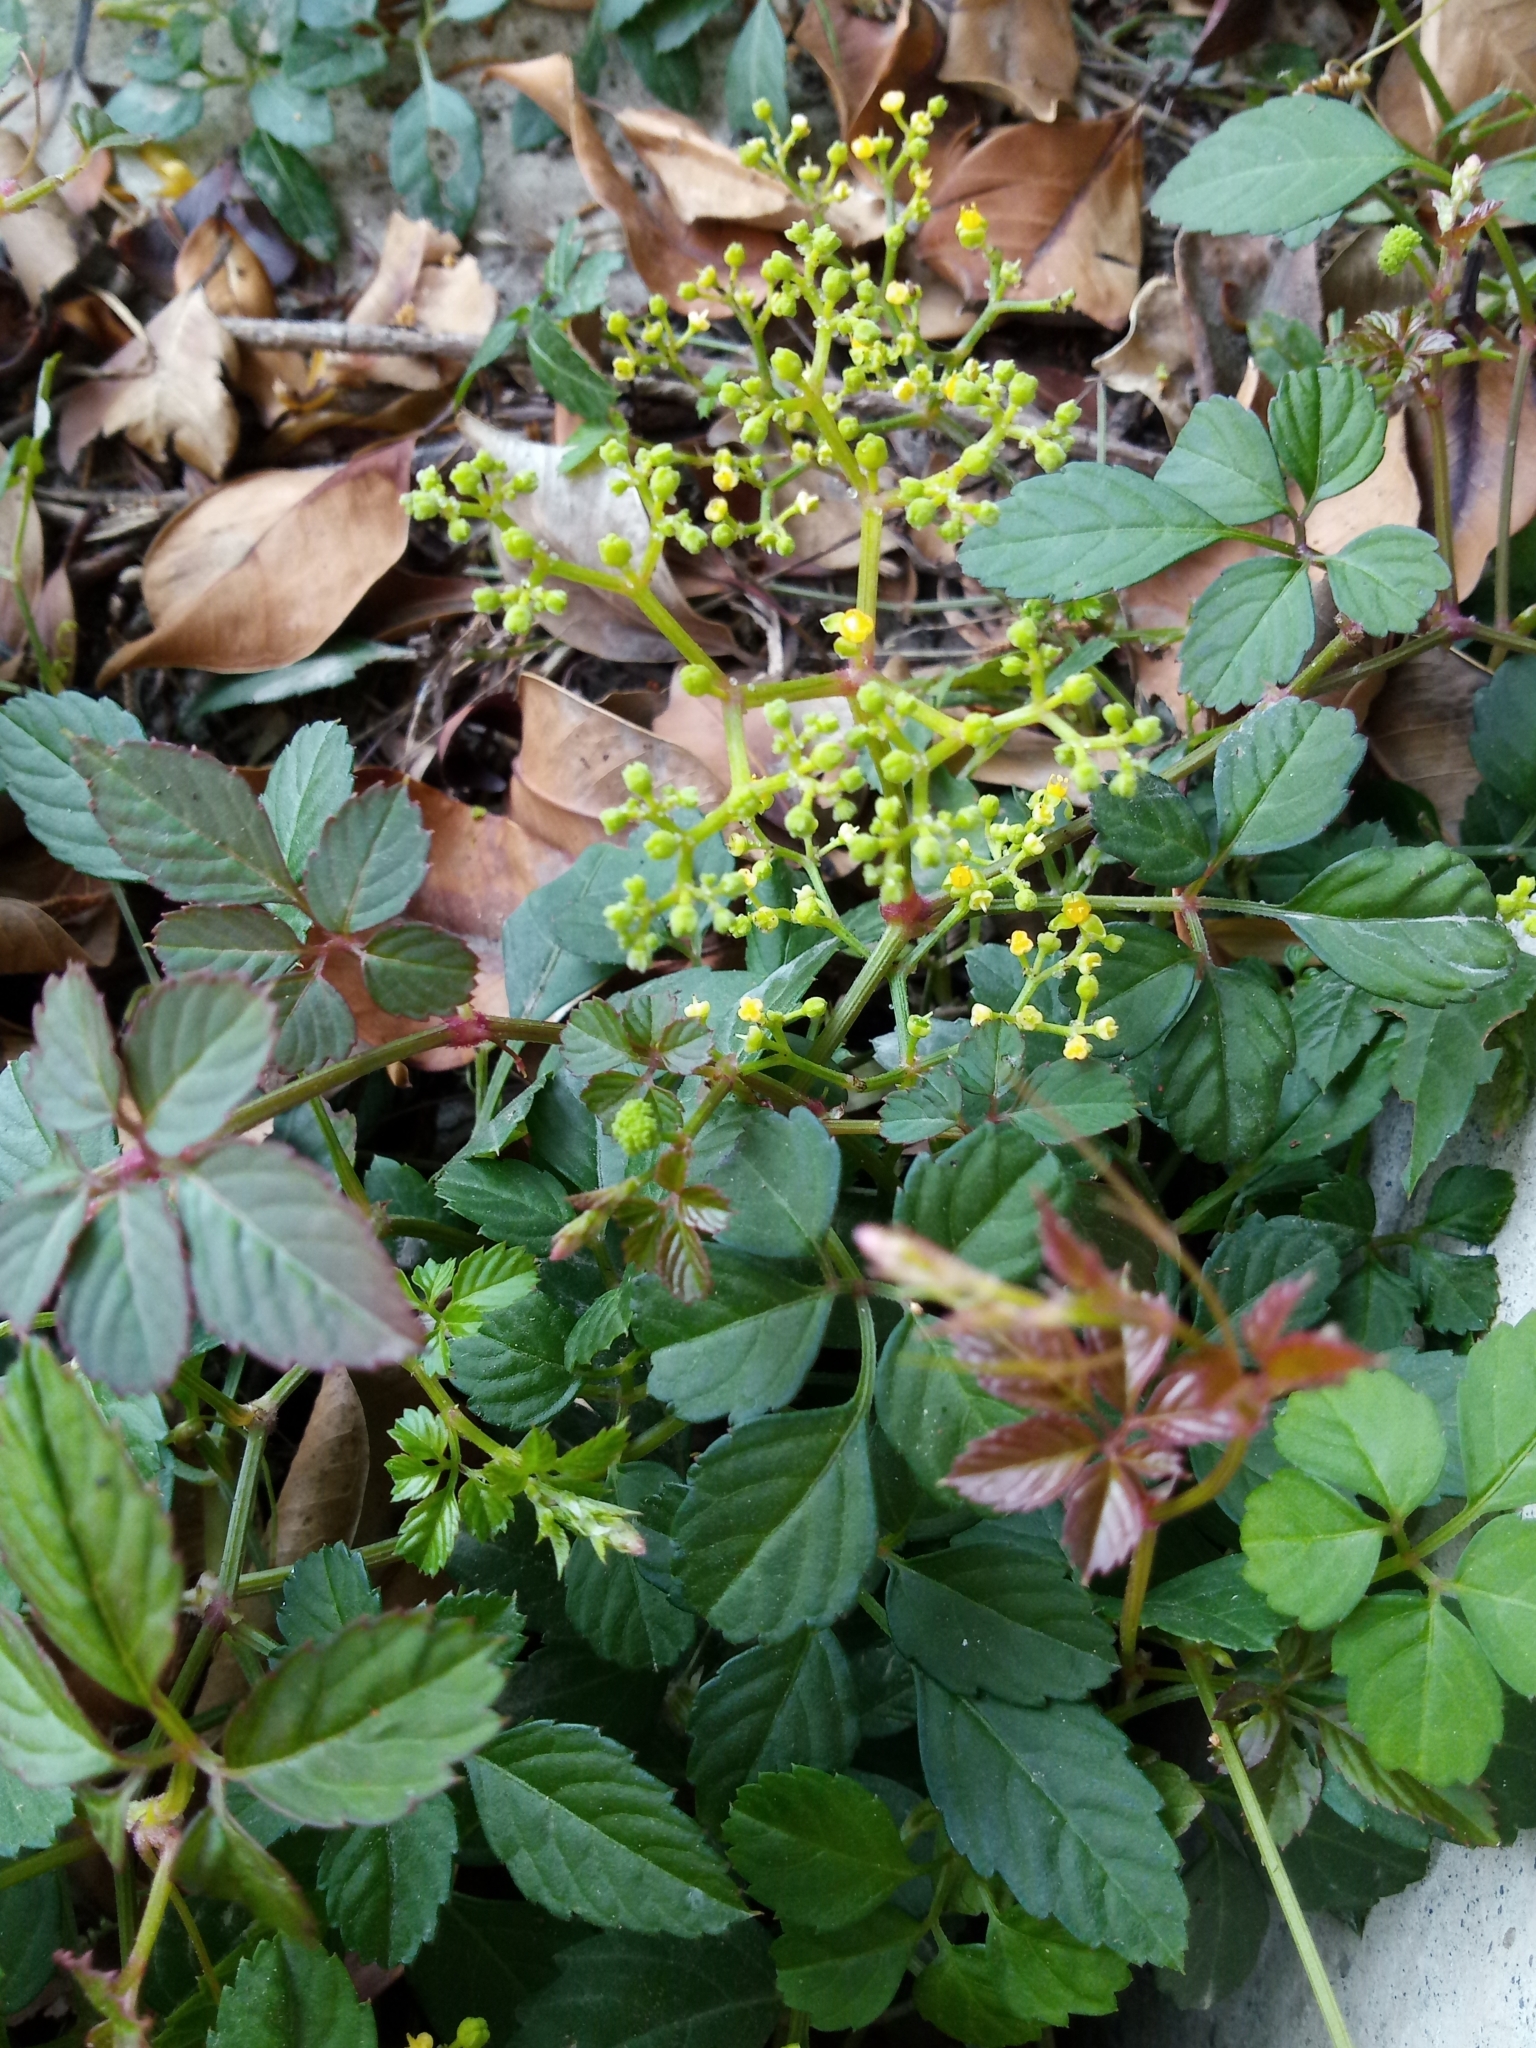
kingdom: Plantae
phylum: Tracheophyta
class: Magnoliopsida
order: Vitales
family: Vitaceae
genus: Causonis
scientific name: Causonis japonica
